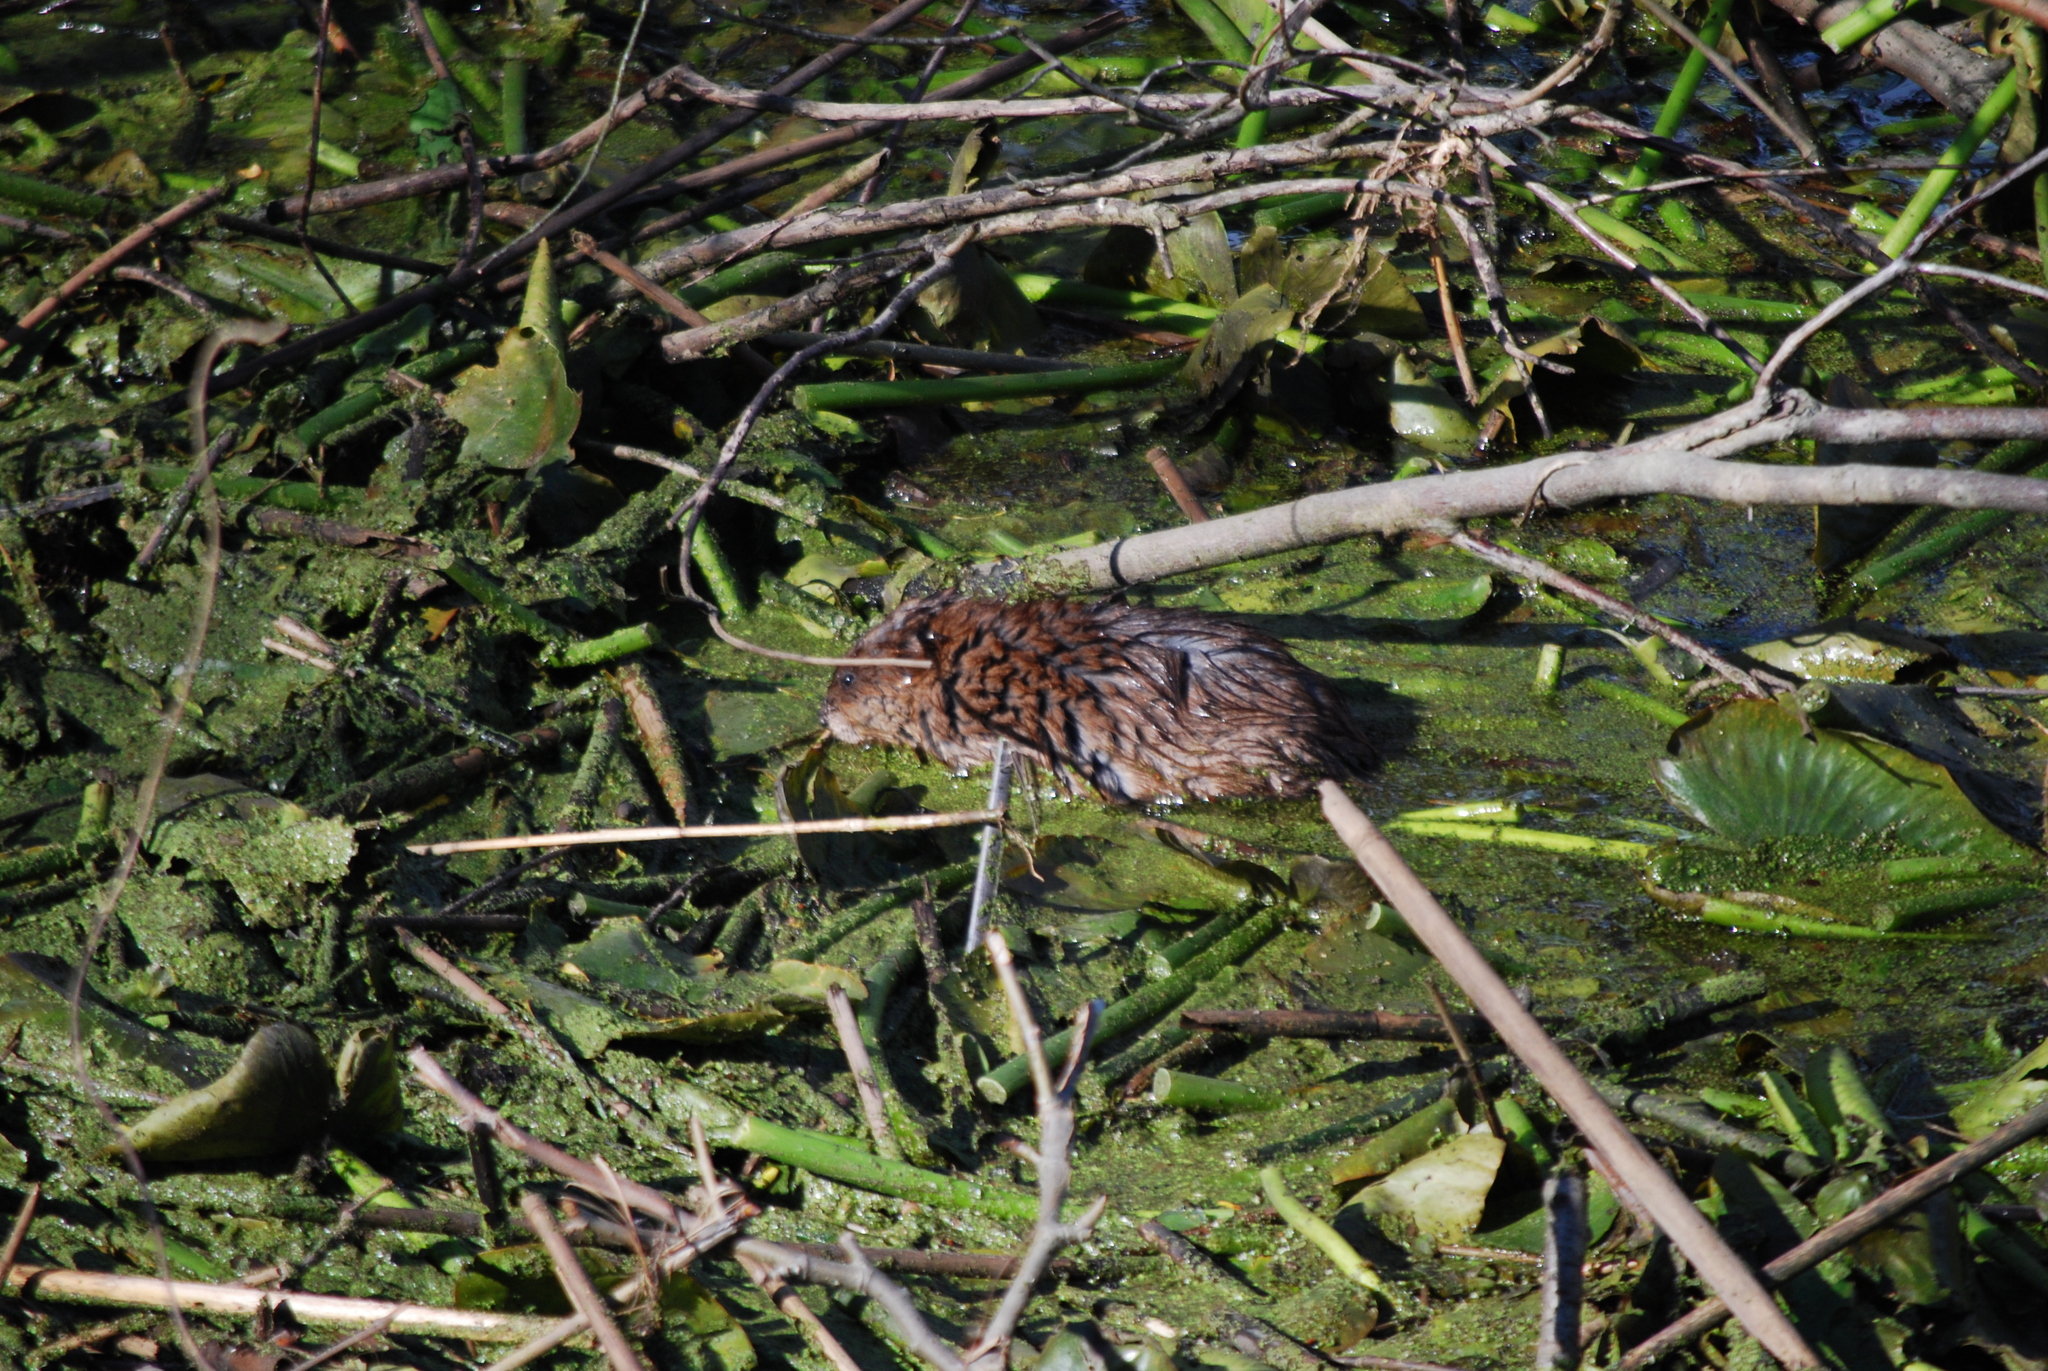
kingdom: Animalia
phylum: Chordata
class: Mammalia
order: Rodentia
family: Cricetidae
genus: Ondatra
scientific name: Ondatra zibethicus
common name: Muskrat
